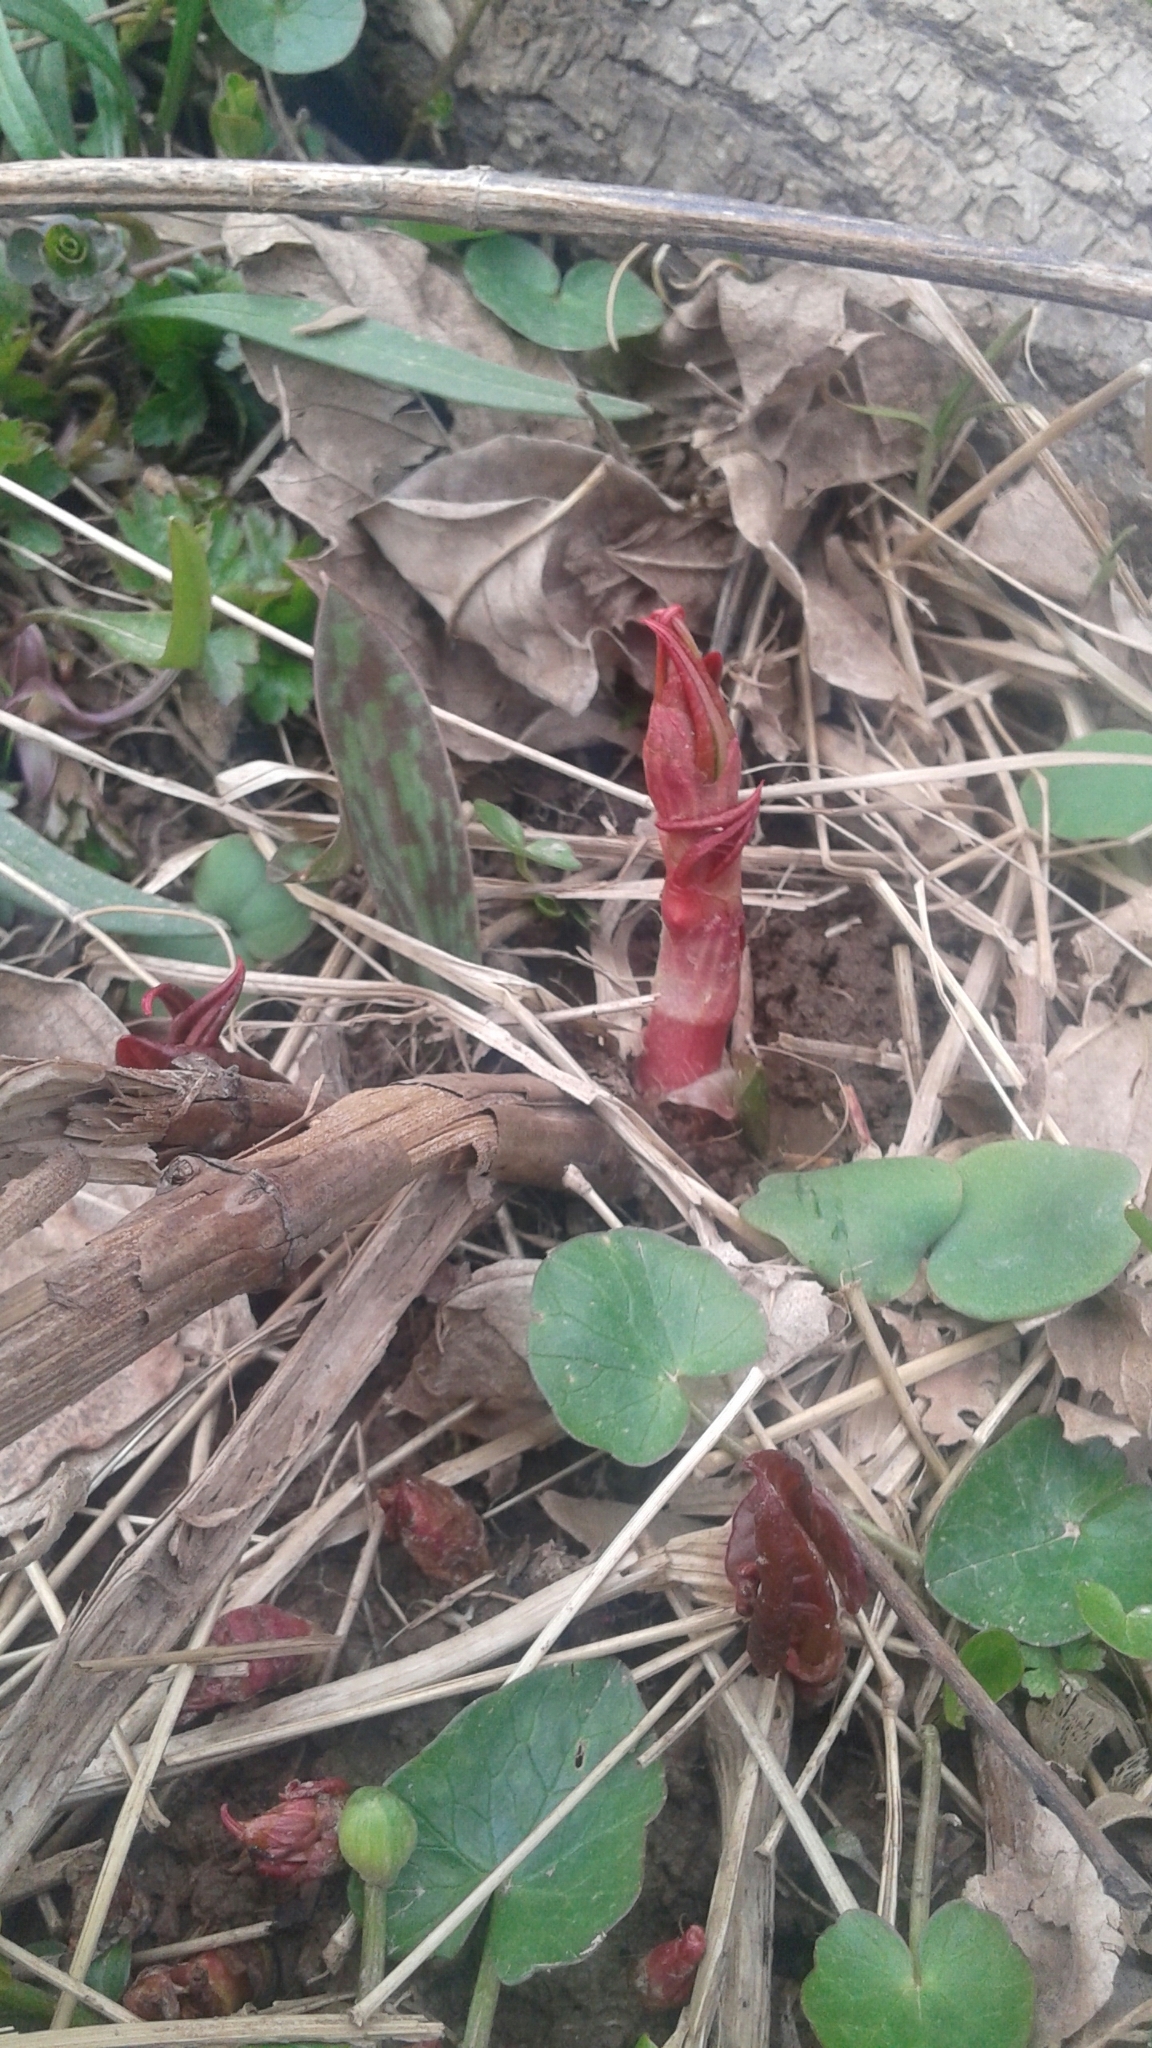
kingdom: Plantae
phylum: Tracheophyta
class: Magnoliopsida
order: Caryophyllales
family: Polygonaceae
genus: Reynoutria
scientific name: Reynoutria japonica
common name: Japanese knotweed
